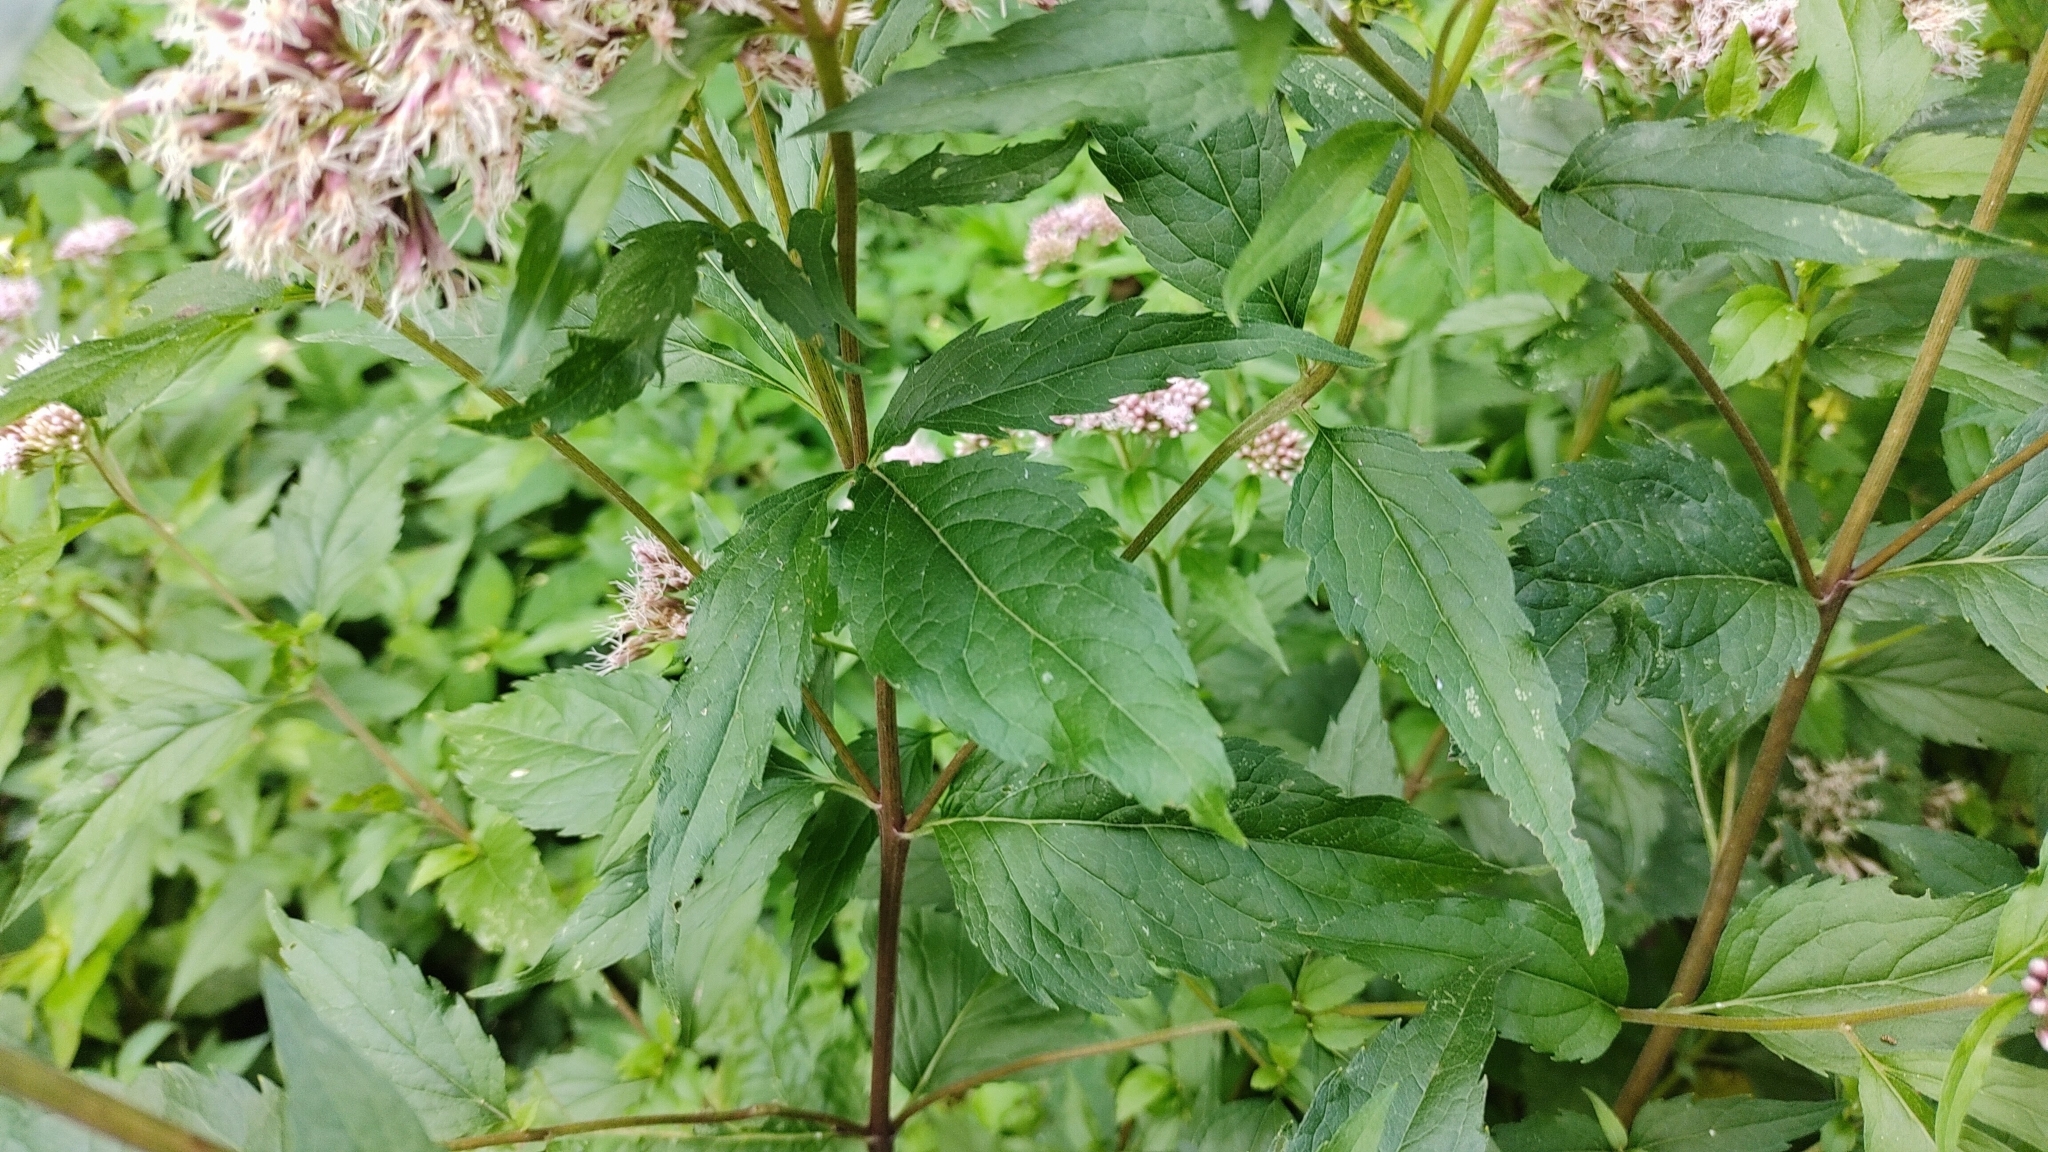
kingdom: Plantae
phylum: Tracheophyta
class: Magnoliopsida
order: Asterales
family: Asteraceae
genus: Eupatorium
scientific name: Eupatorium cannabinum
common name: Hemp-agrimony
